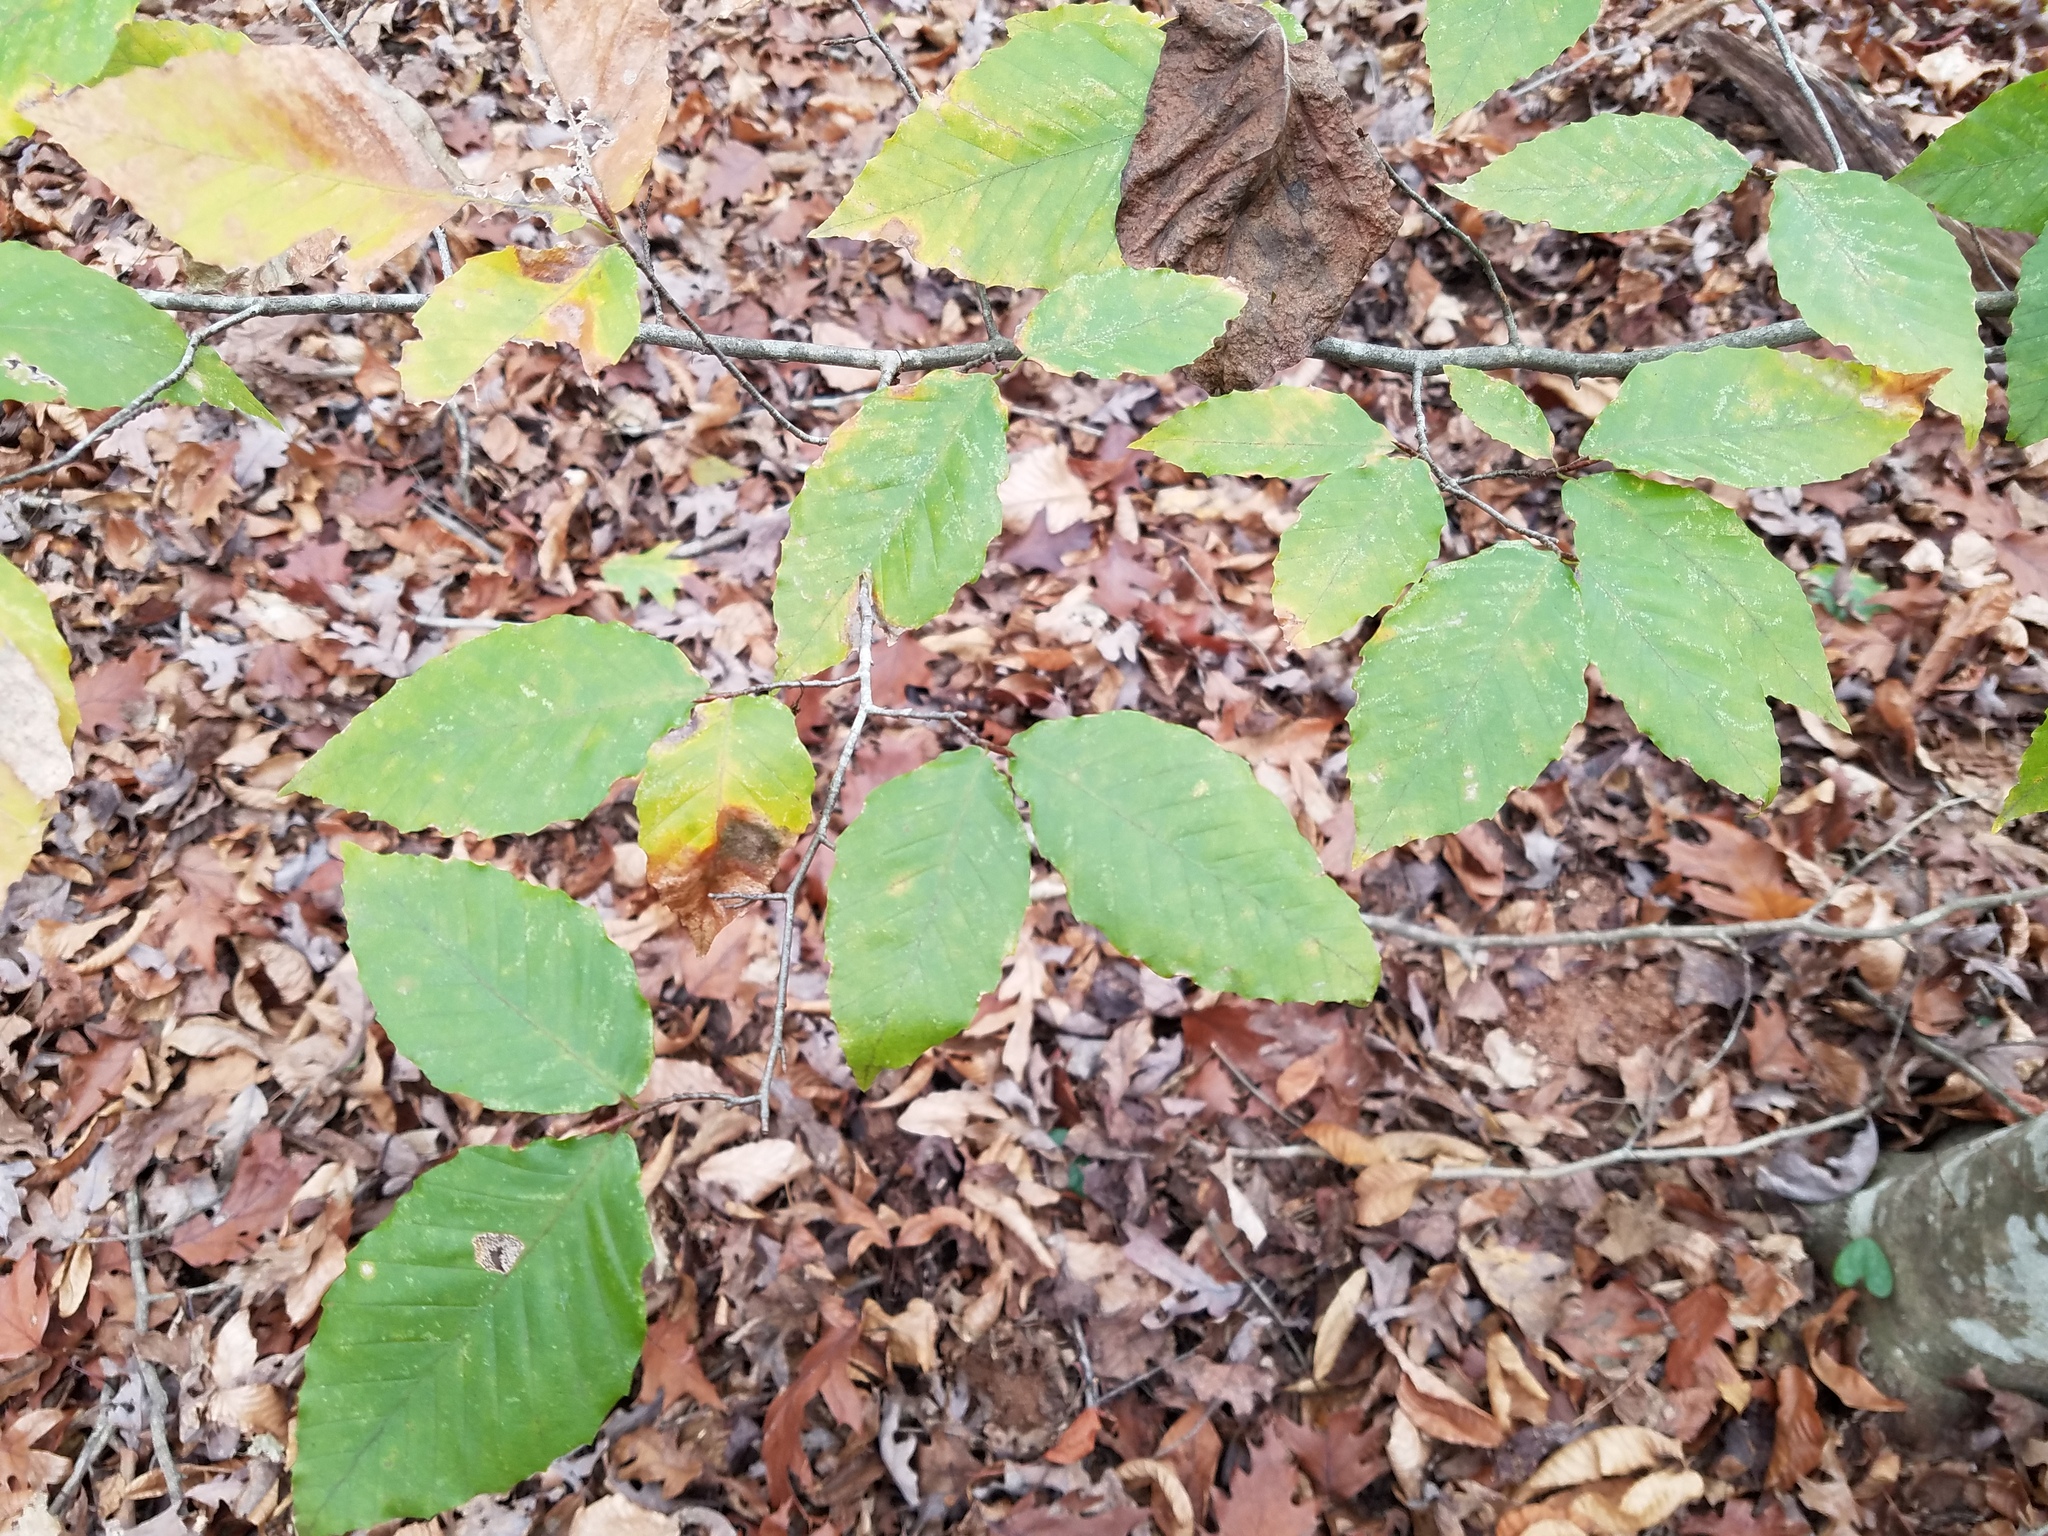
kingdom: Plantae
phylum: Tracheophyta
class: Magnoliopsida
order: Fagales
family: Fagaceae
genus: Fagus
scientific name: Fagus grandifolia
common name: American beech
